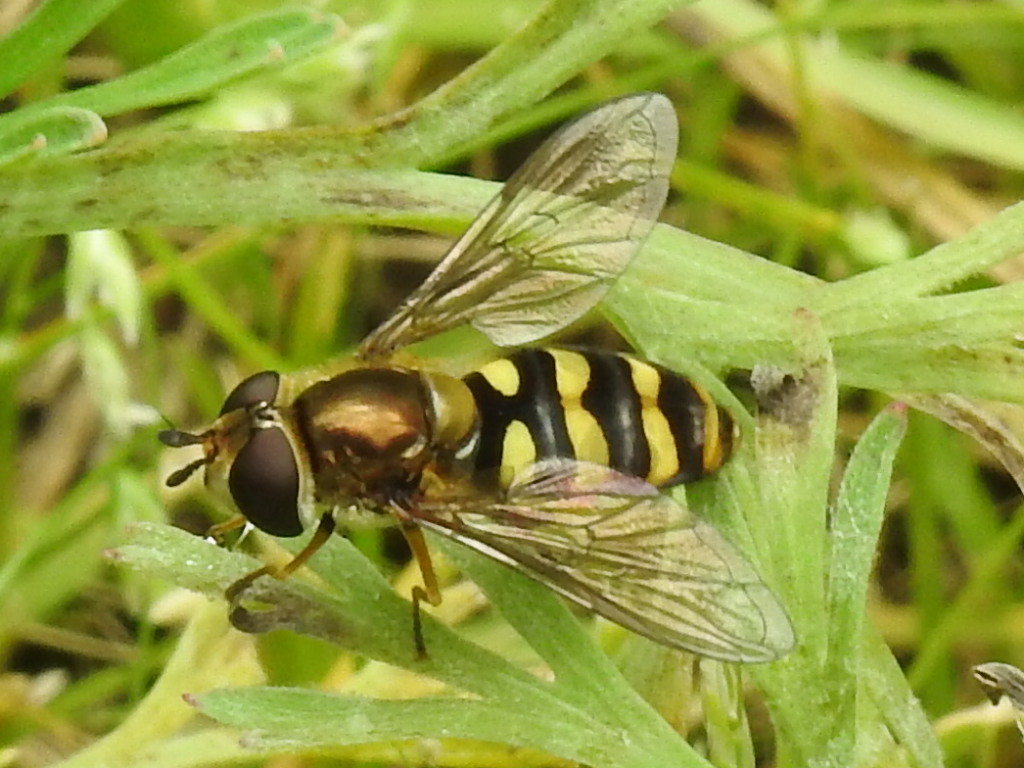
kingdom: Animalia
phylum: Arthropoda
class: Insecta
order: Diptera
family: Syrphidae
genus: Eupeodes
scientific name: Eupeodes fumipennis
